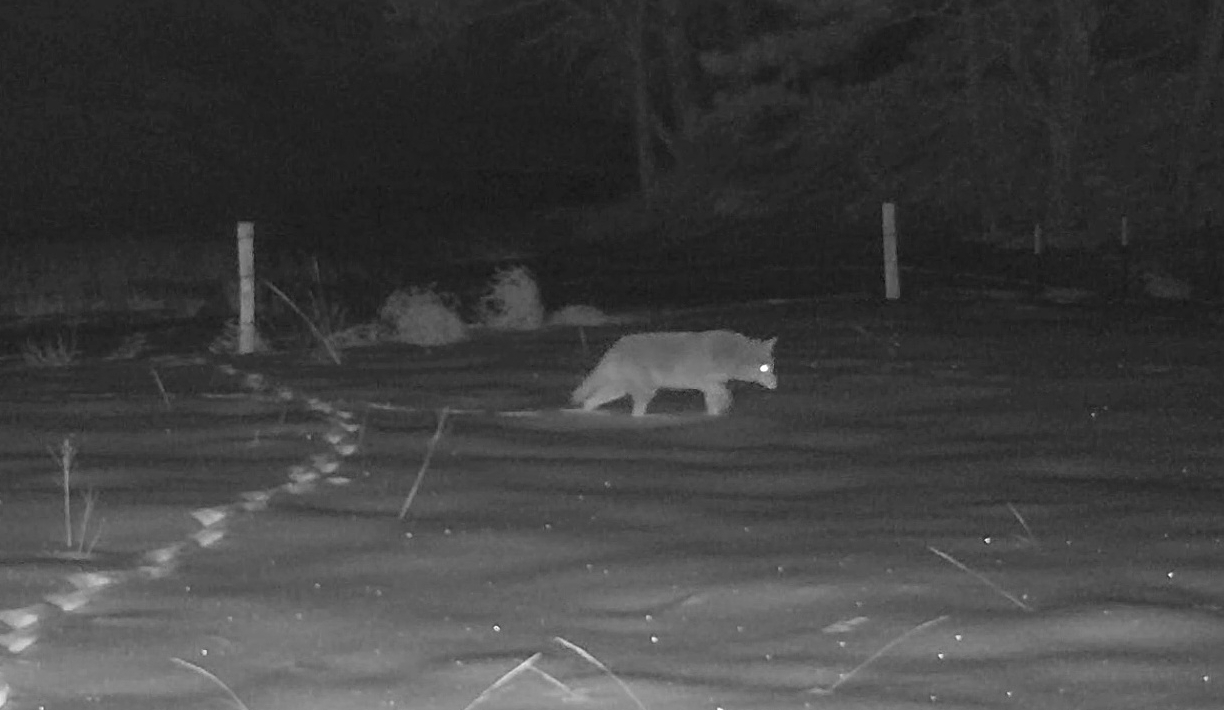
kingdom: Animalia
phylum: Chordata
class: Mammalia
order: Carnivora
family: Canidae
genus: Canis
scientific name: Canis latrans
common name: Coyote
